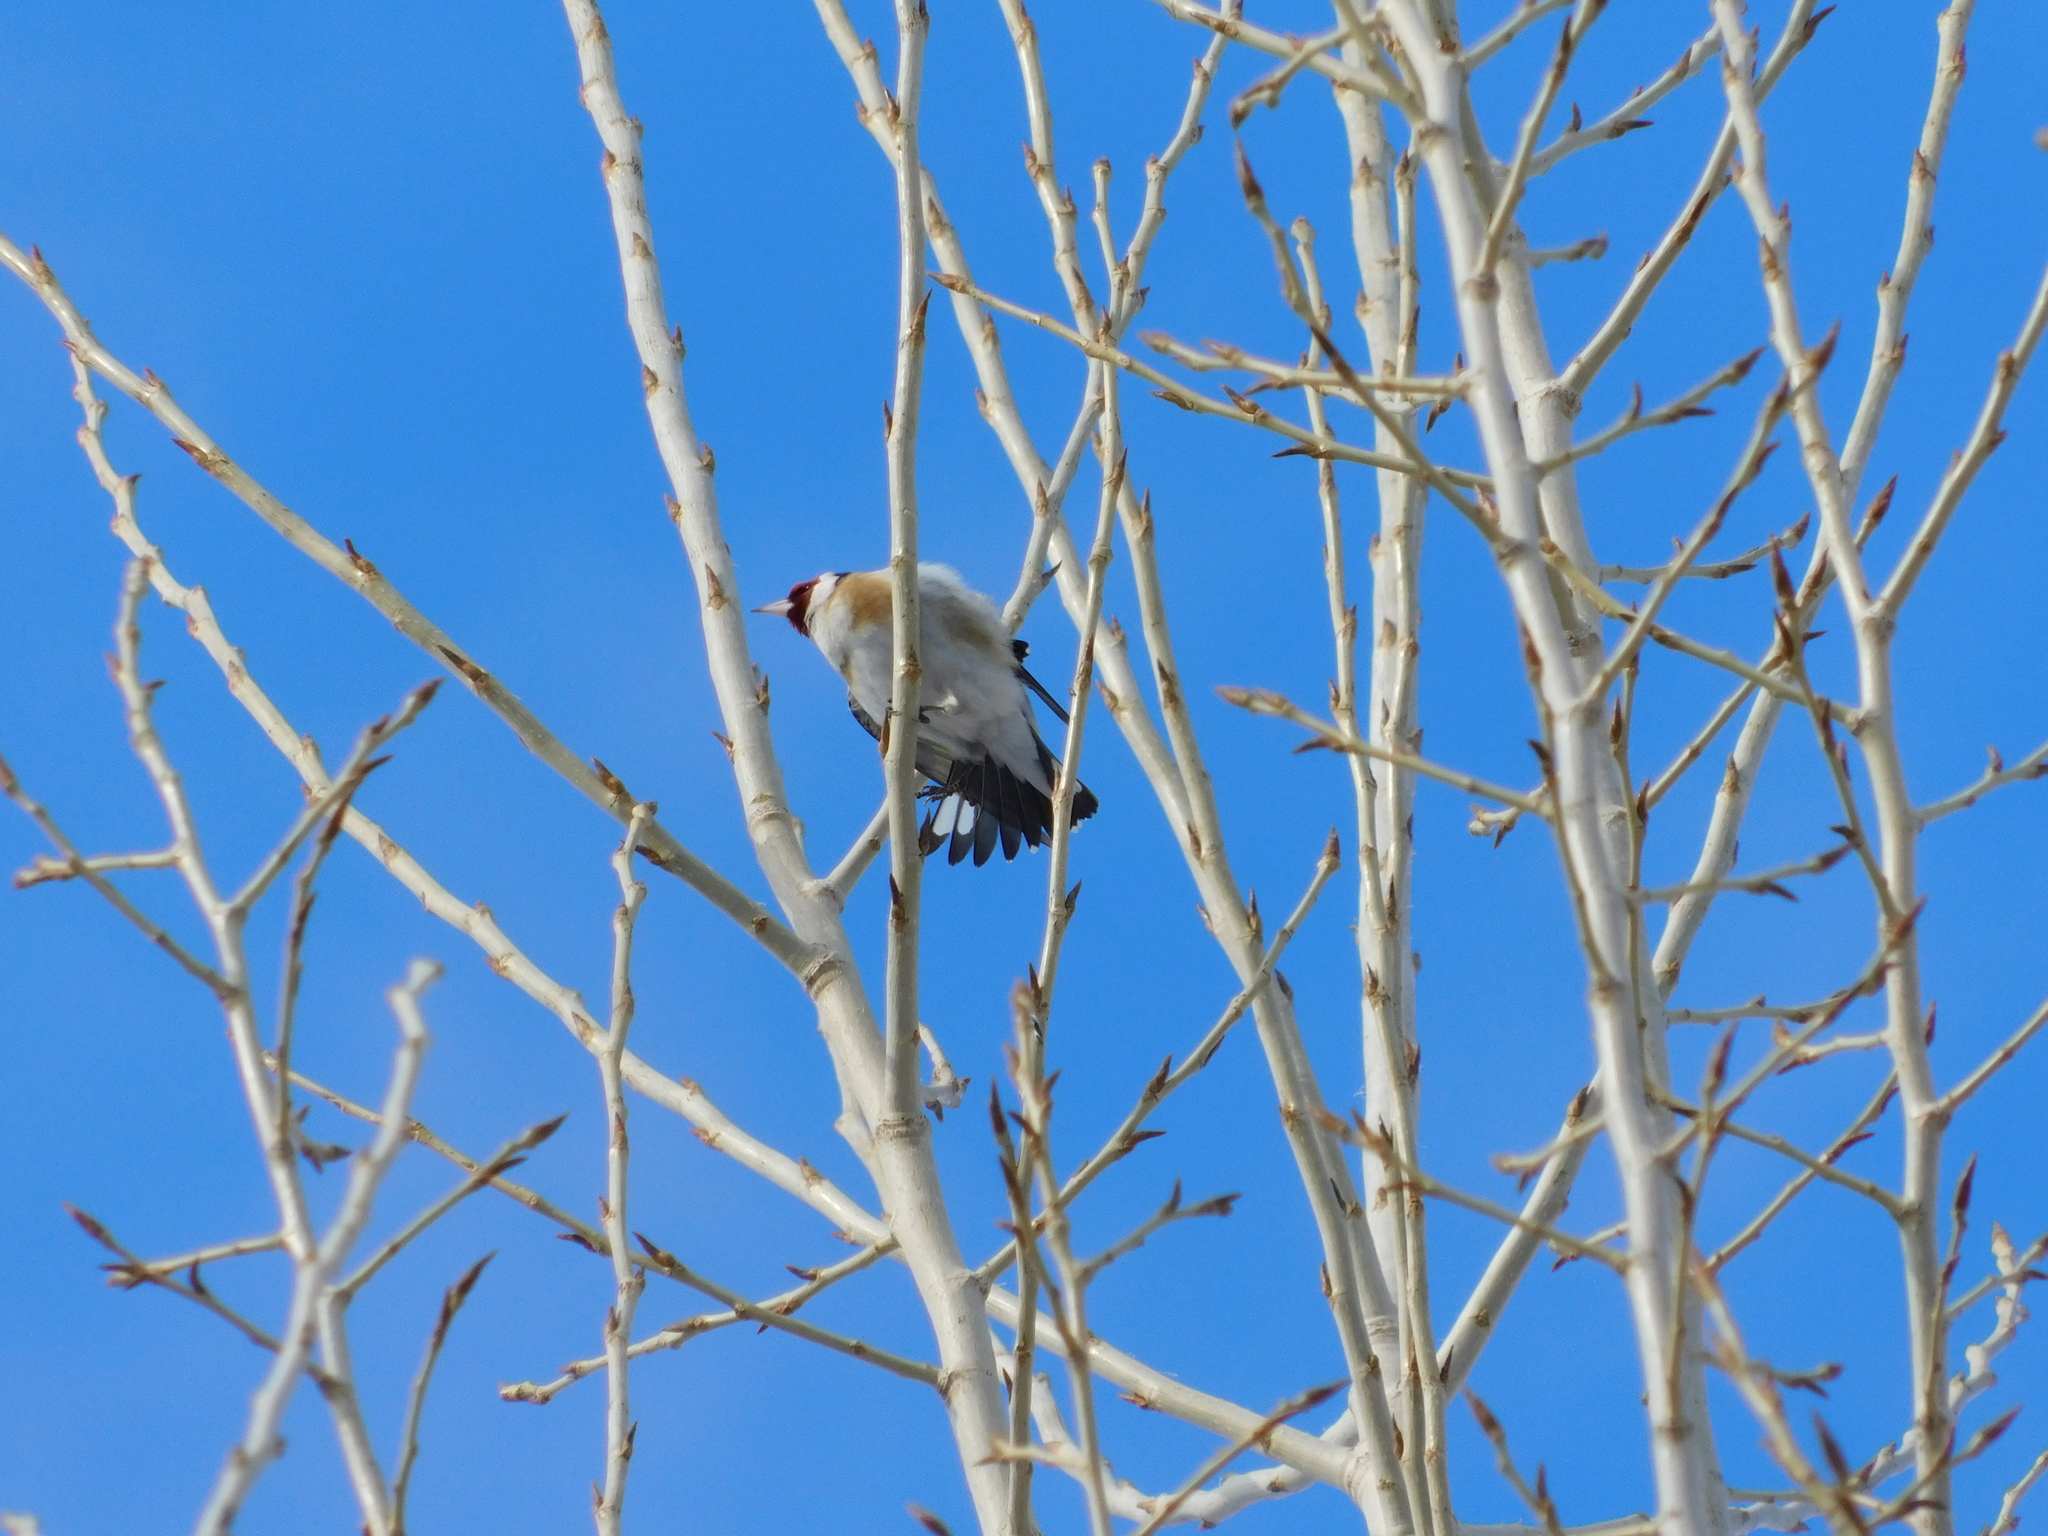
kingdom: Animalia
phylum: Chordata
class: Aves
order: Passeriformes
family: Fringillidae
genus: Carduelis
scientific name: Carduelis carduelis
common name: European goldfinch
